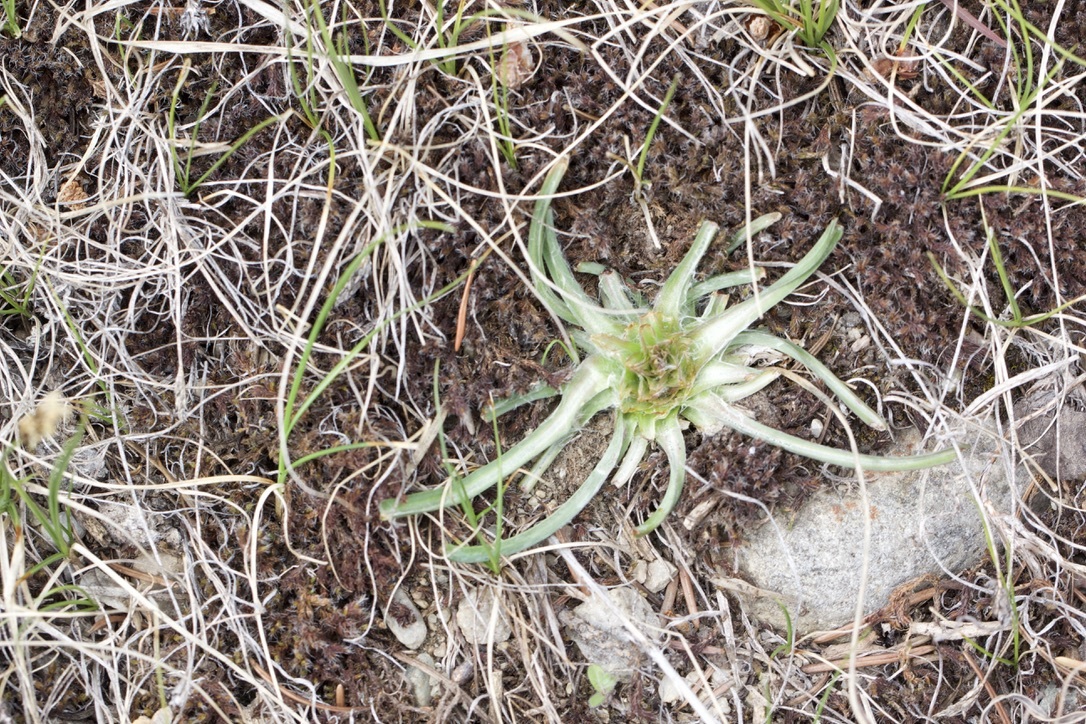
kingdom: Plantae
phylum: Tracheophyta
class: Magnoliopsida
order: Asterales
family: Asteraceae
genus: Tragopogon
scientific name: Tragopogon dubius
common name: Yellow salsify
